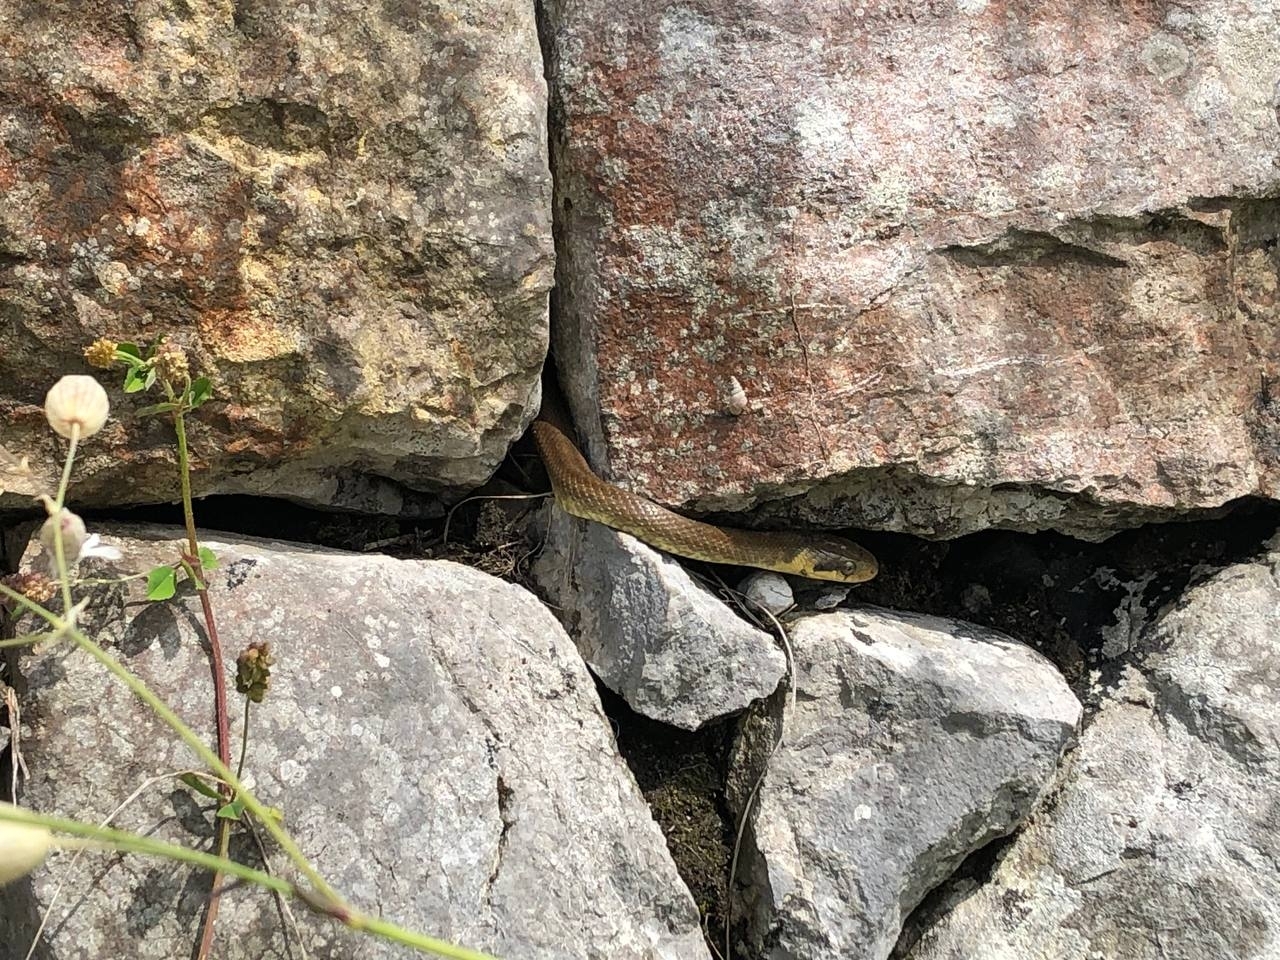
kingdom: Animalia
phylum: Chordata
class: Squamata
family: Colubridae
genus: Zamenis
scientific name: Zamenis longissimus
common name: Aesculapean snake
